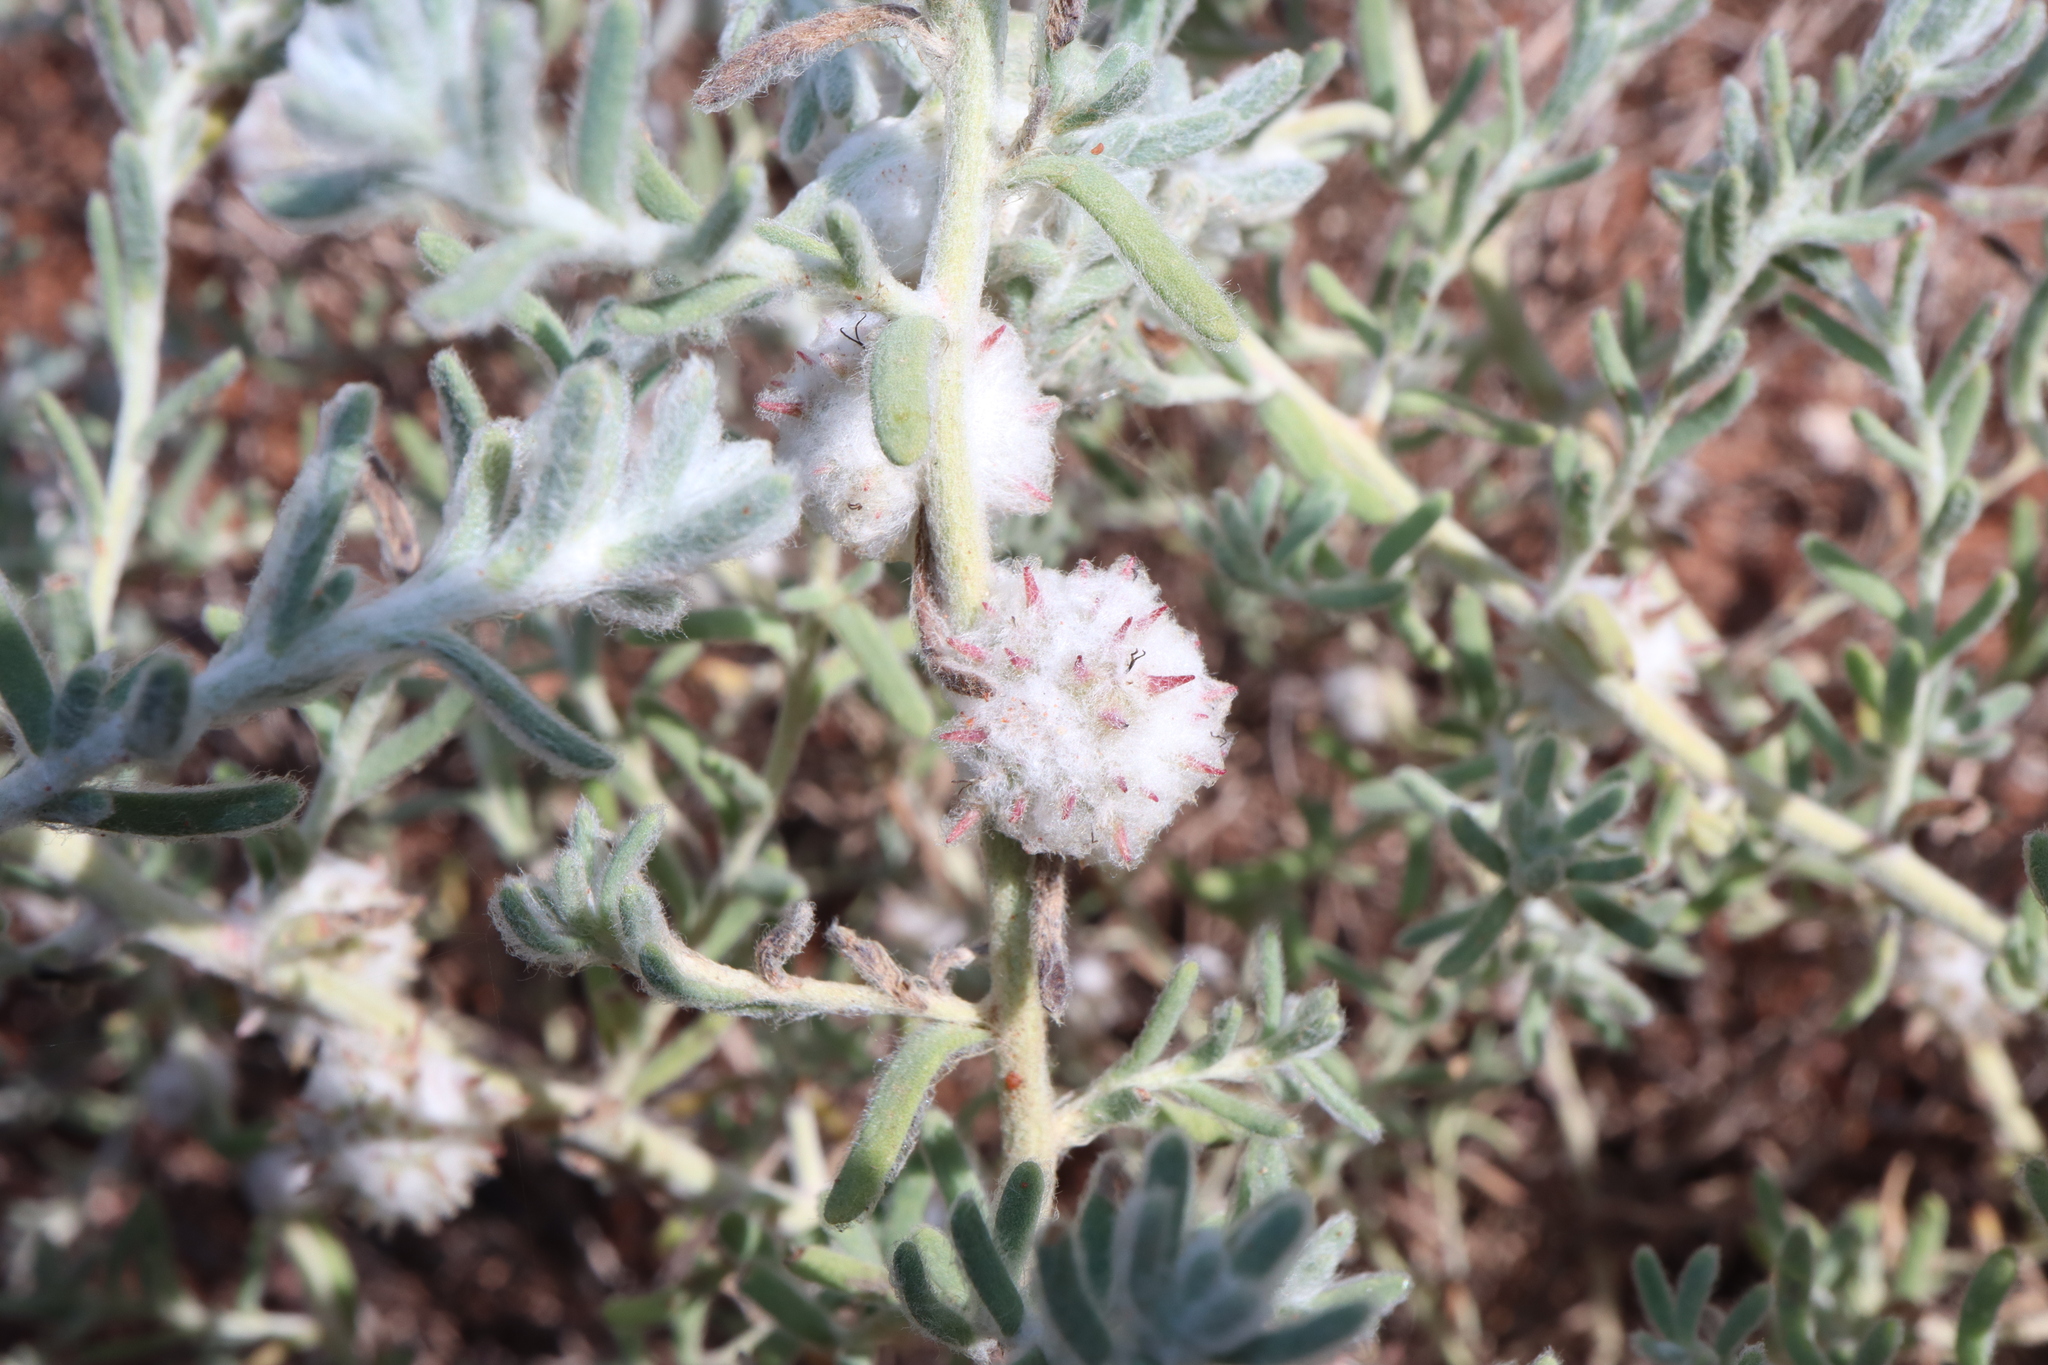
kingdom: Plantae
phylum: Tracheophyta
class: Magnoliopsida
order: Caryophyllales
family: Amaranthaceae
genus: Dissocarpus
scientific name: Dissocarpus paradoxus
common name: Bur-saltbush
